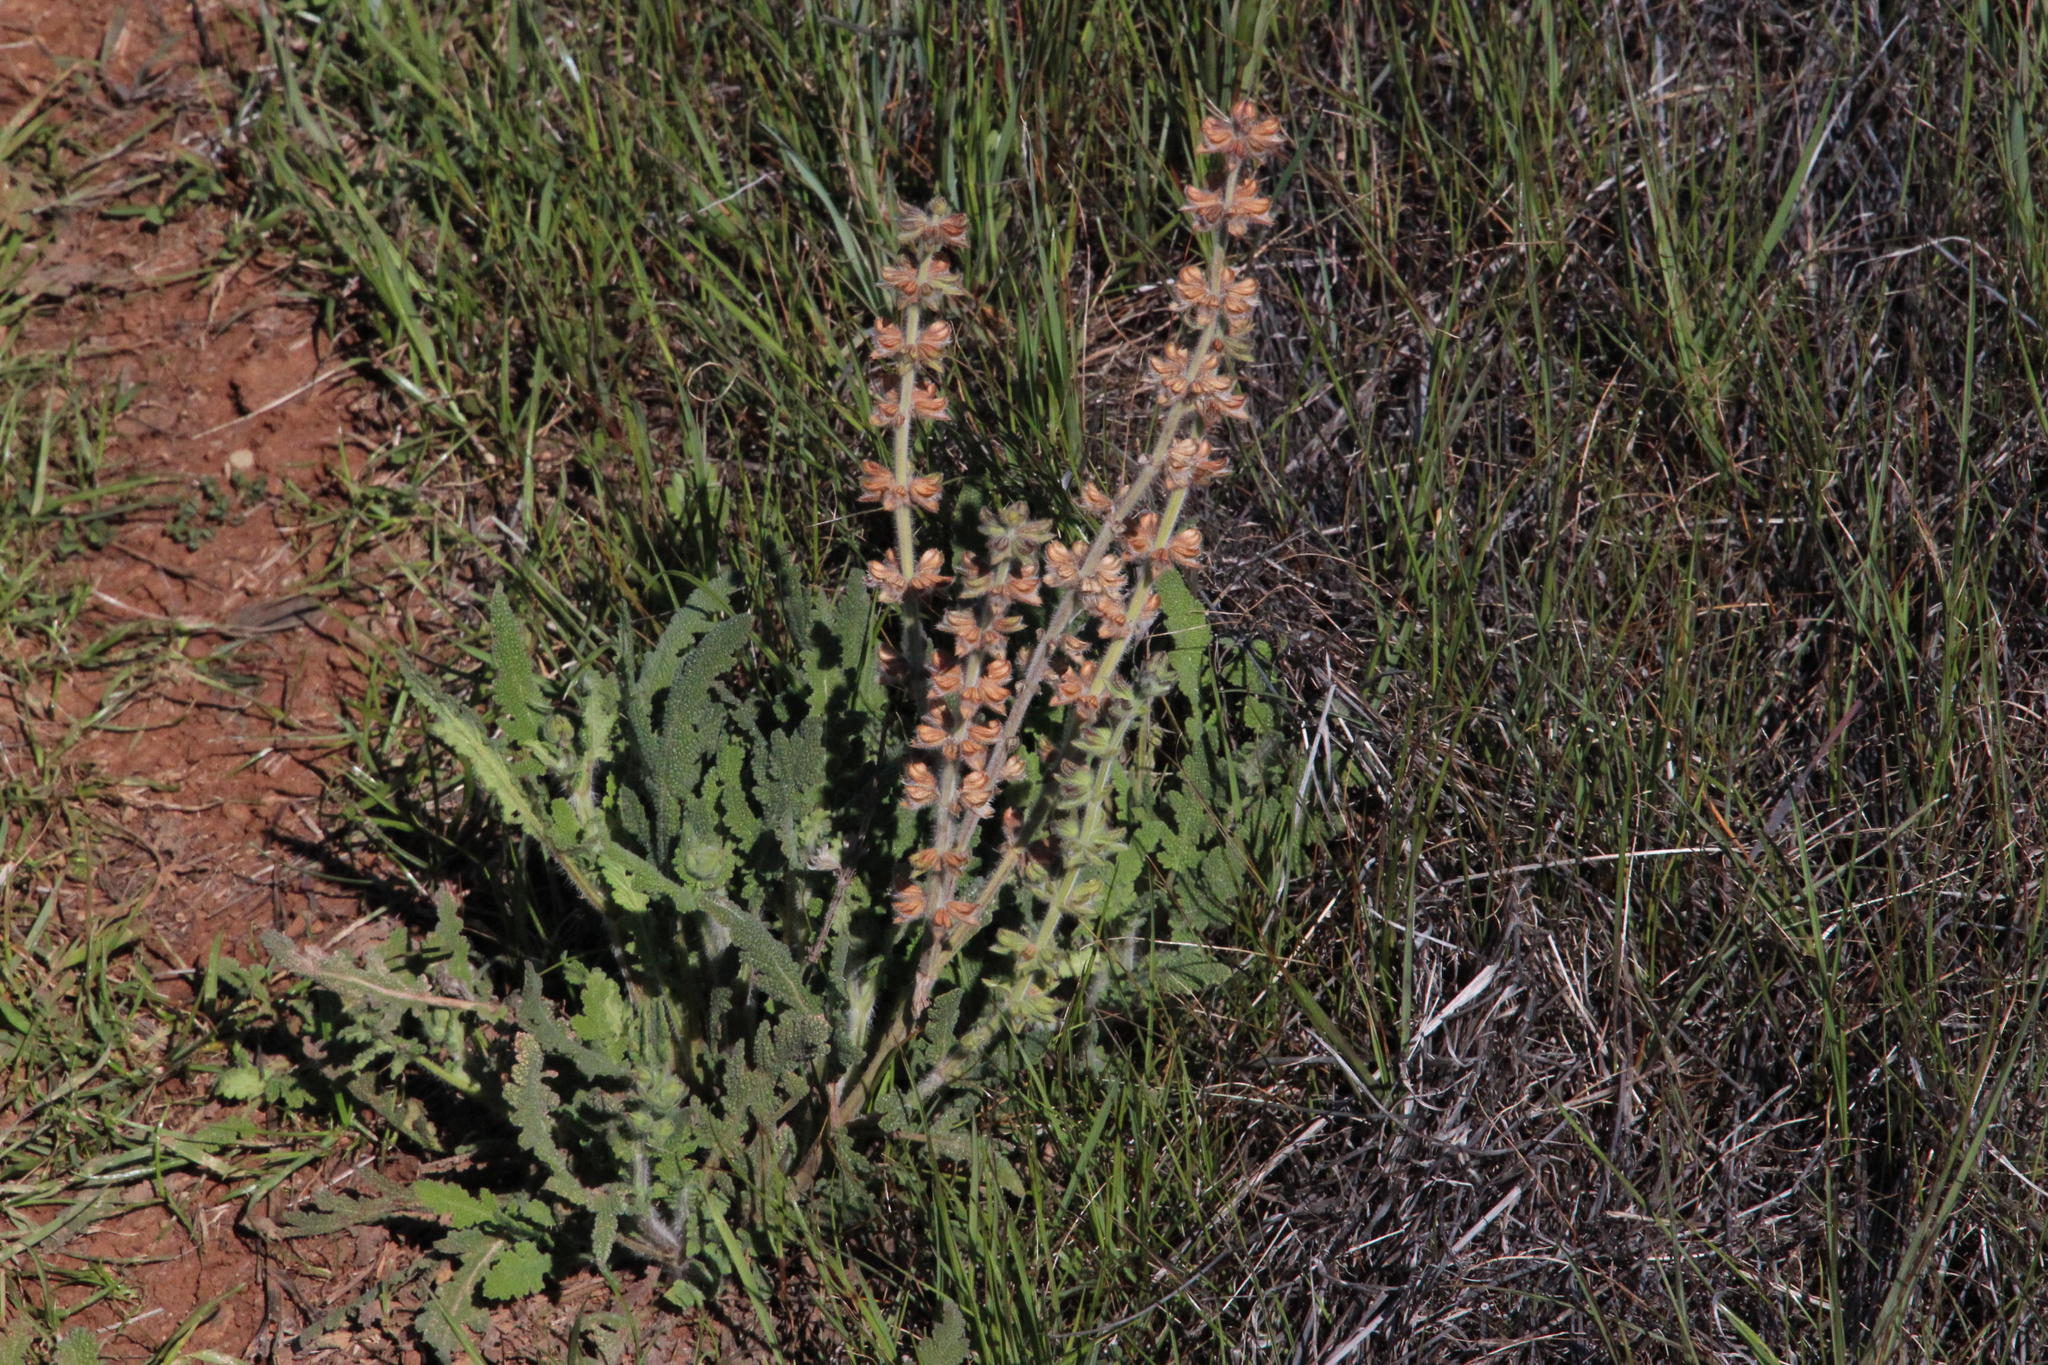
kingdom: Plantae
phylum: Tracheophyta
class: Magnoliopsida
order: Lamiales
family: Lamiaceae
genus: Salvia
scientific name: Salvia verbenaca
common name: Wild clary
